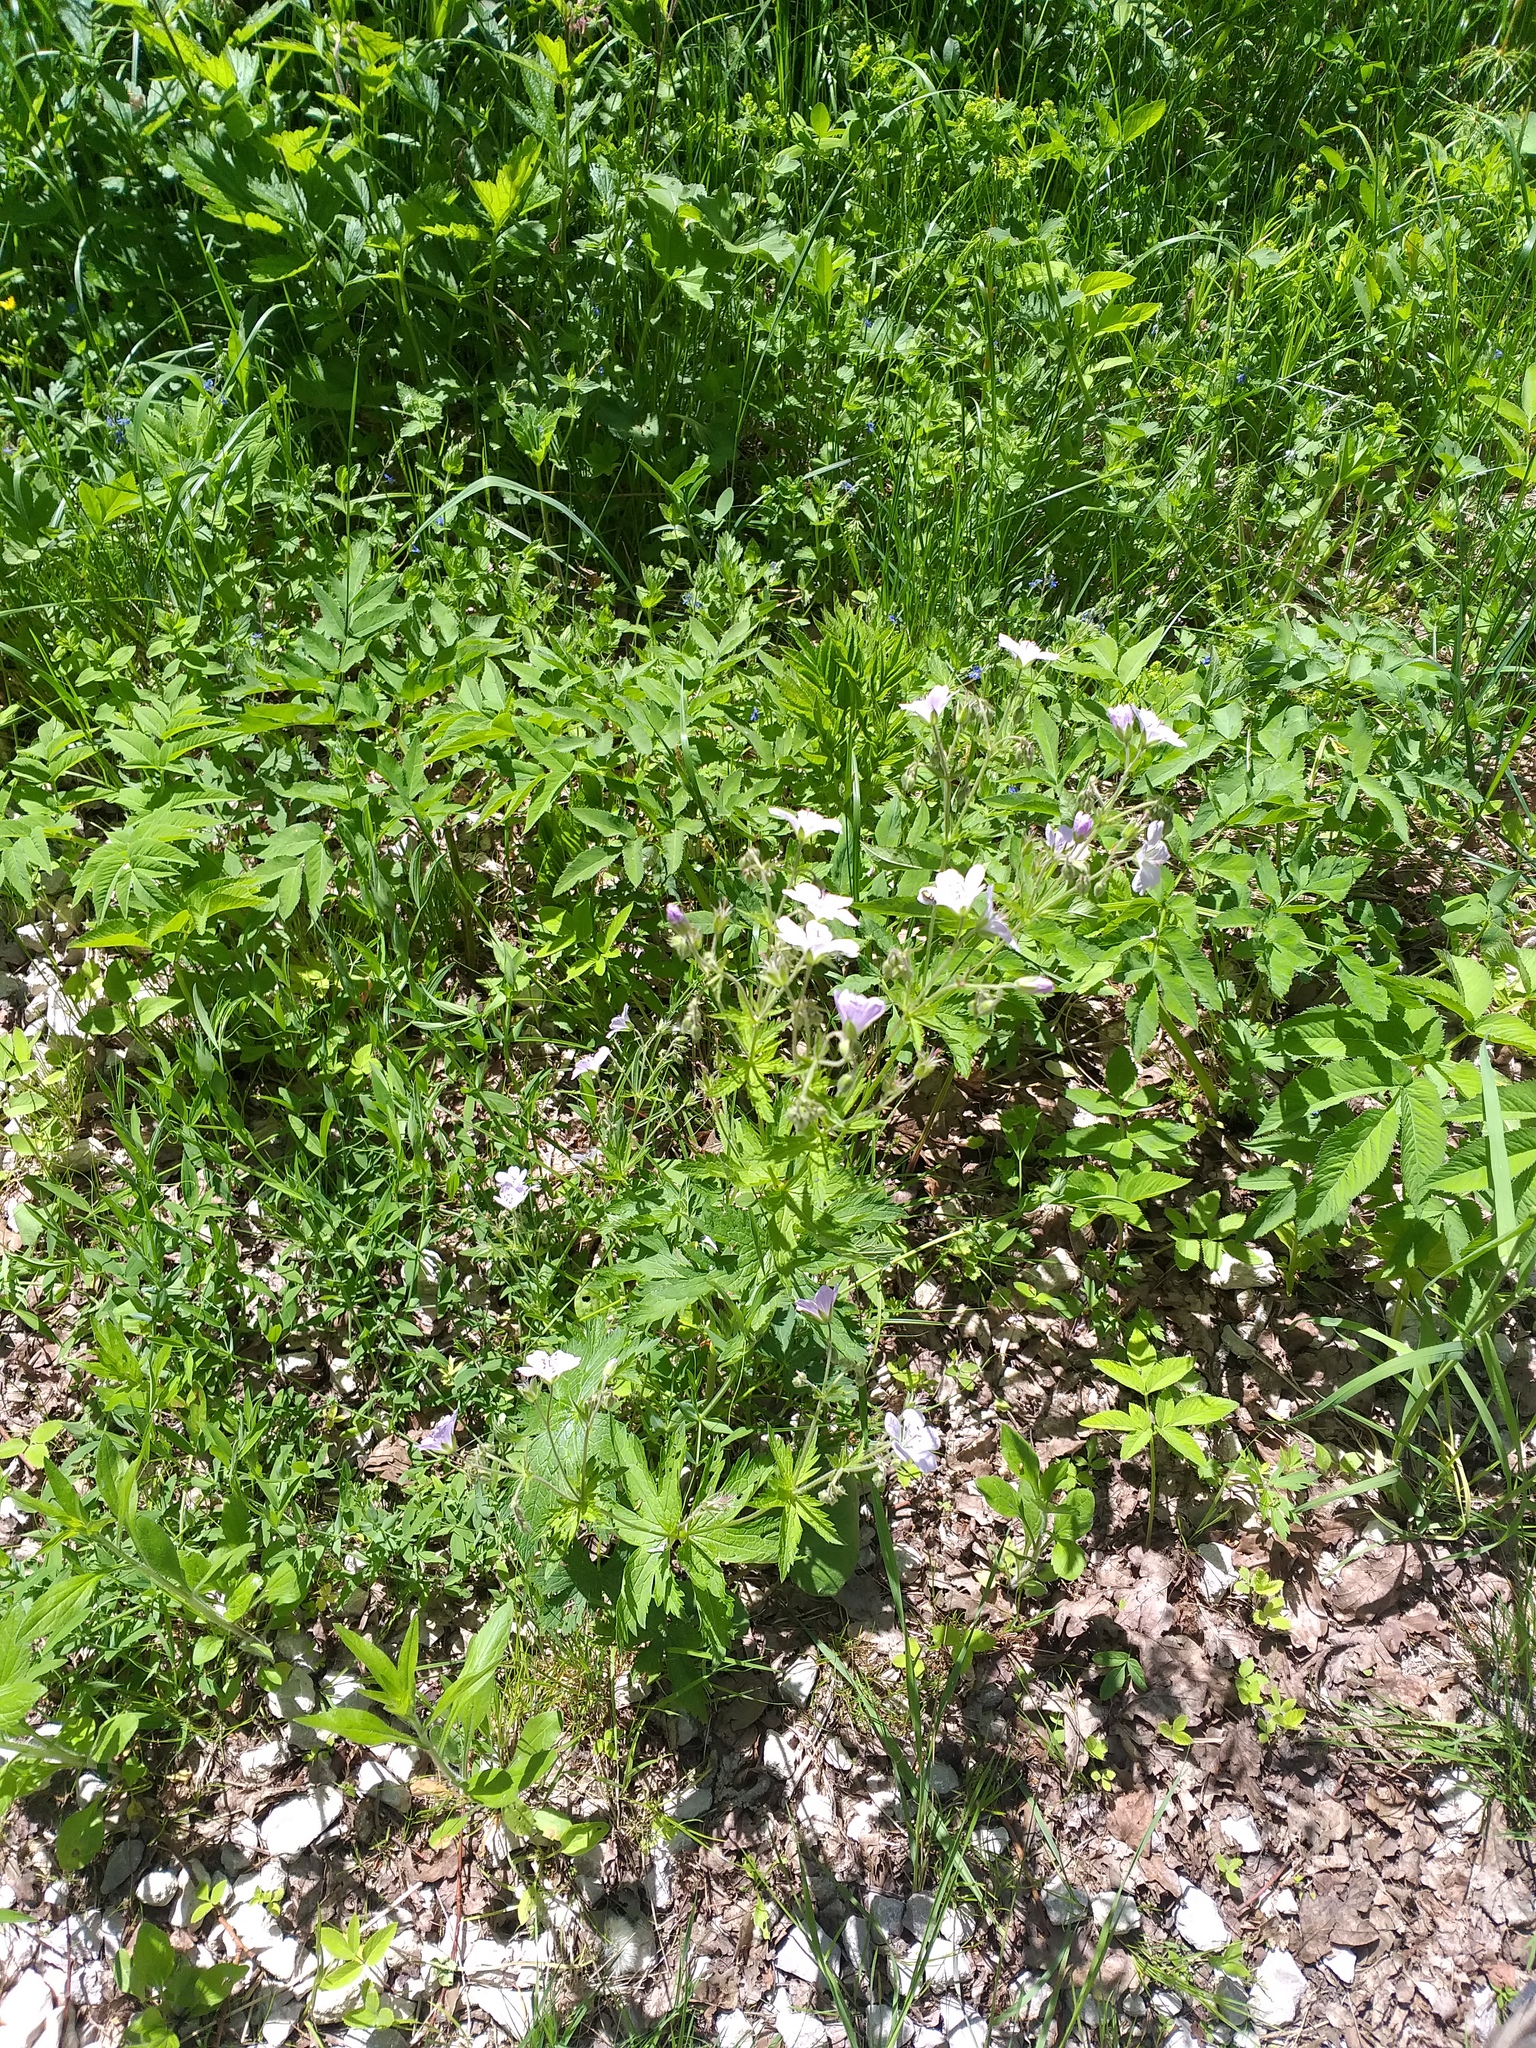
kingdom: Plantae
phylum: Tracheophyta
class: Magnoliopsida
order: Geraniales
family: Geraniaceae
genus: Geranium
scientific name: Geranium sylvaticum
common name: Wood crane's-bill
